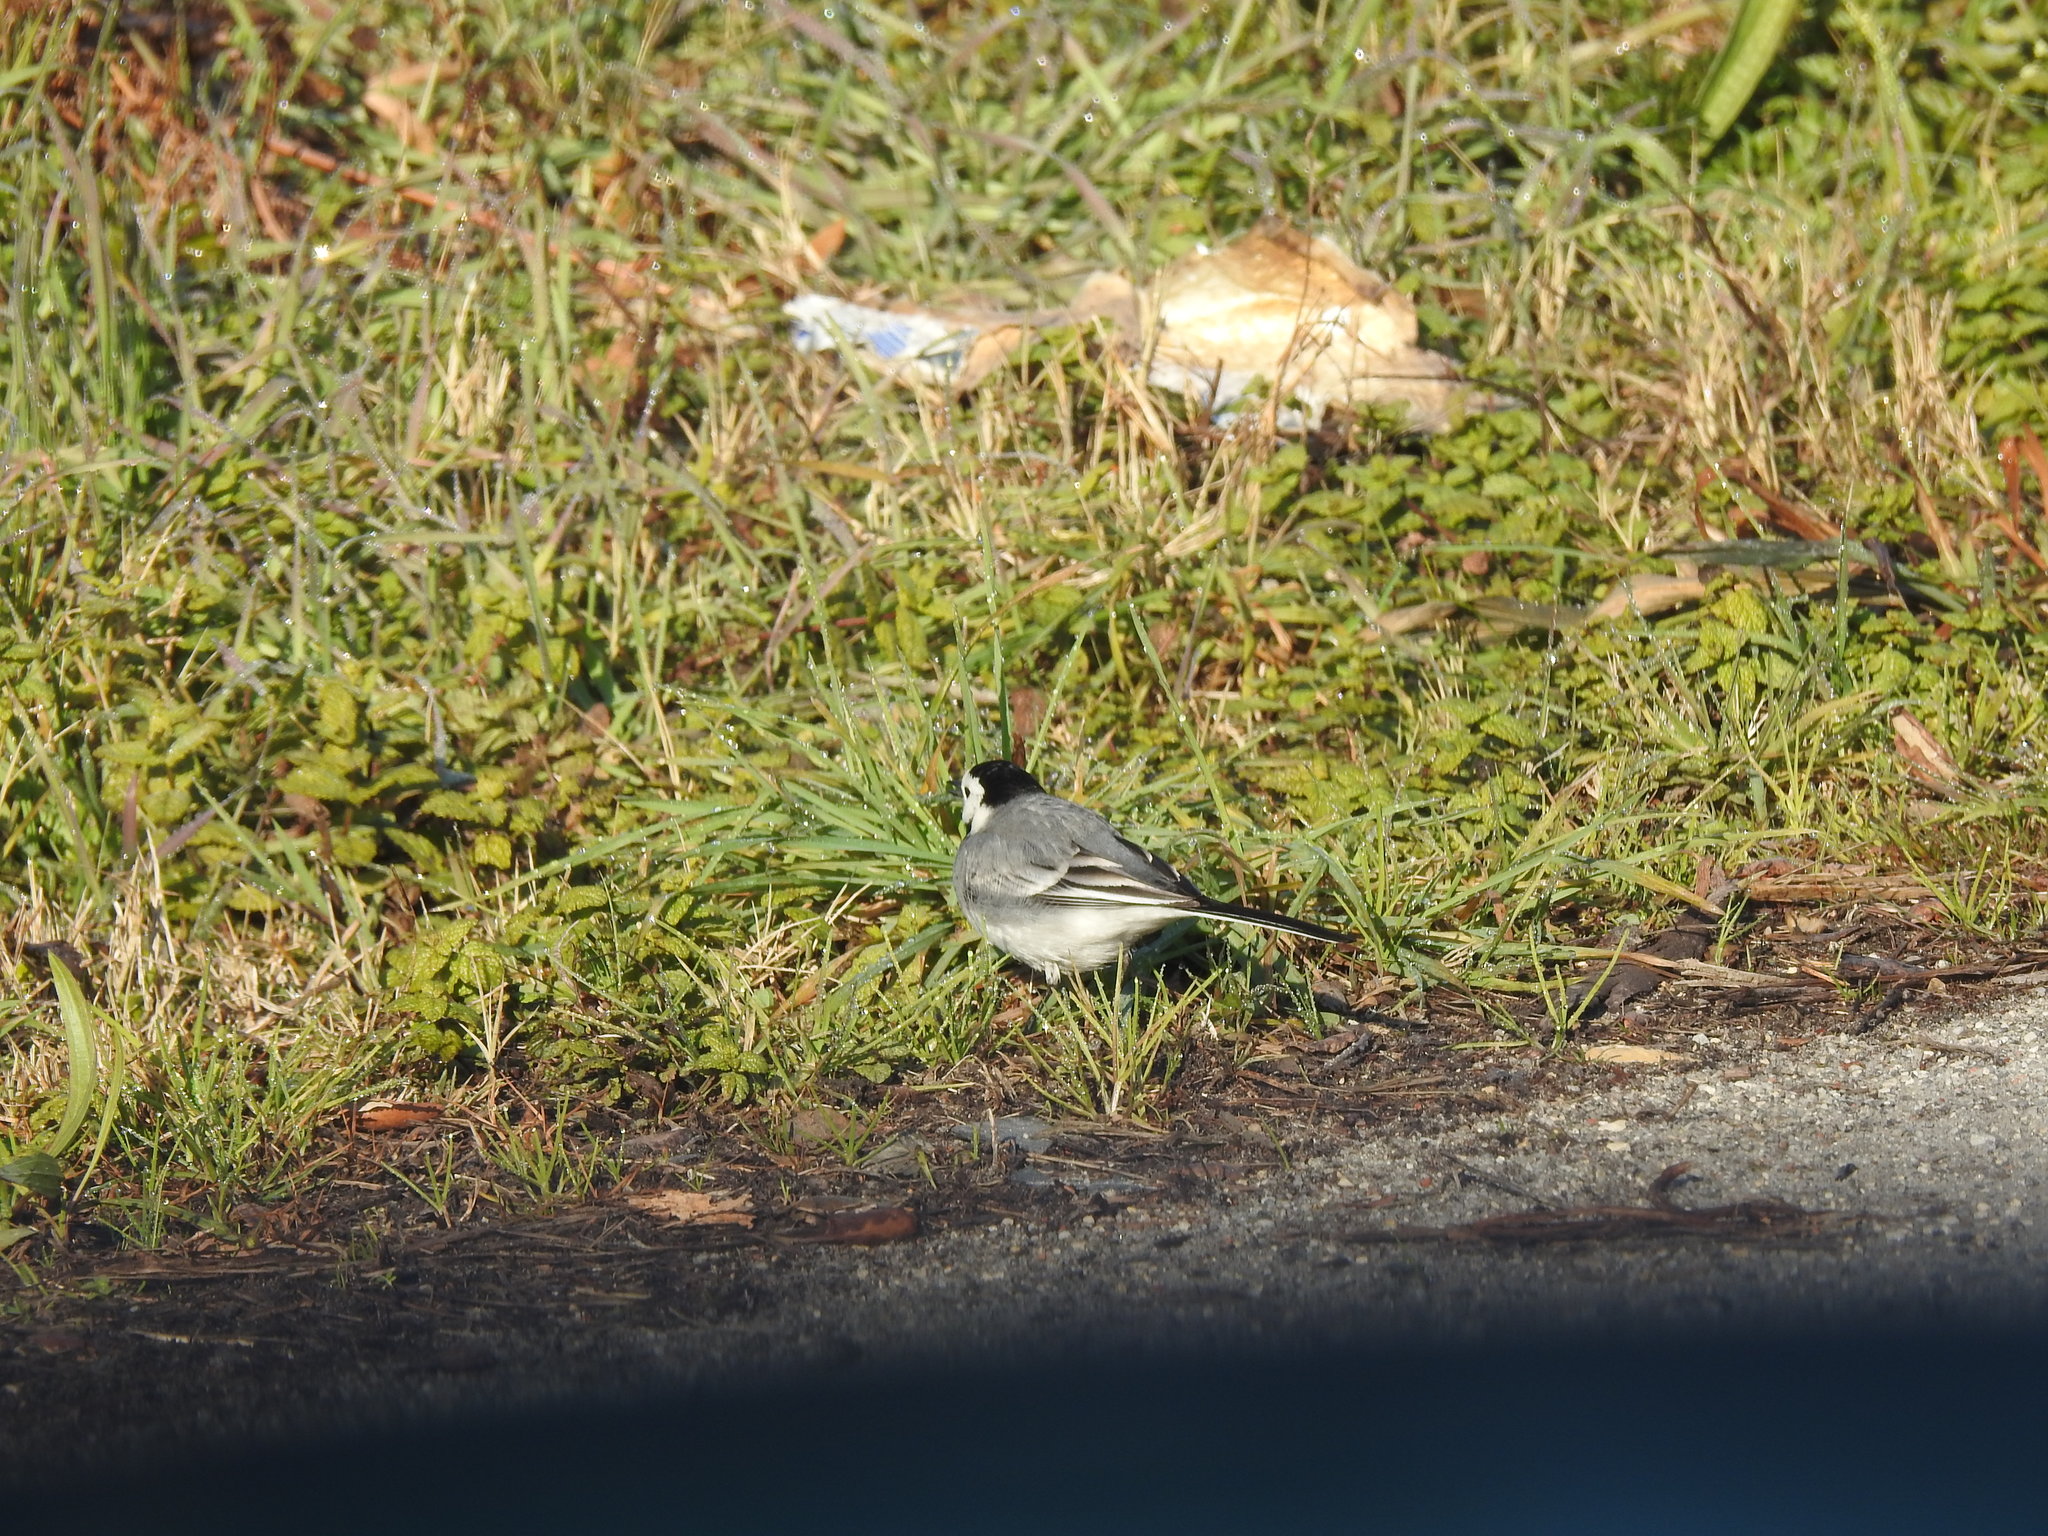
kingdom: Animalia
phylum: Chordata
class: Aves
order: Passeriformes
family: Motacillidae
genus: Motacilla
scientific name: Motacilla alba
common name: White wagtail
